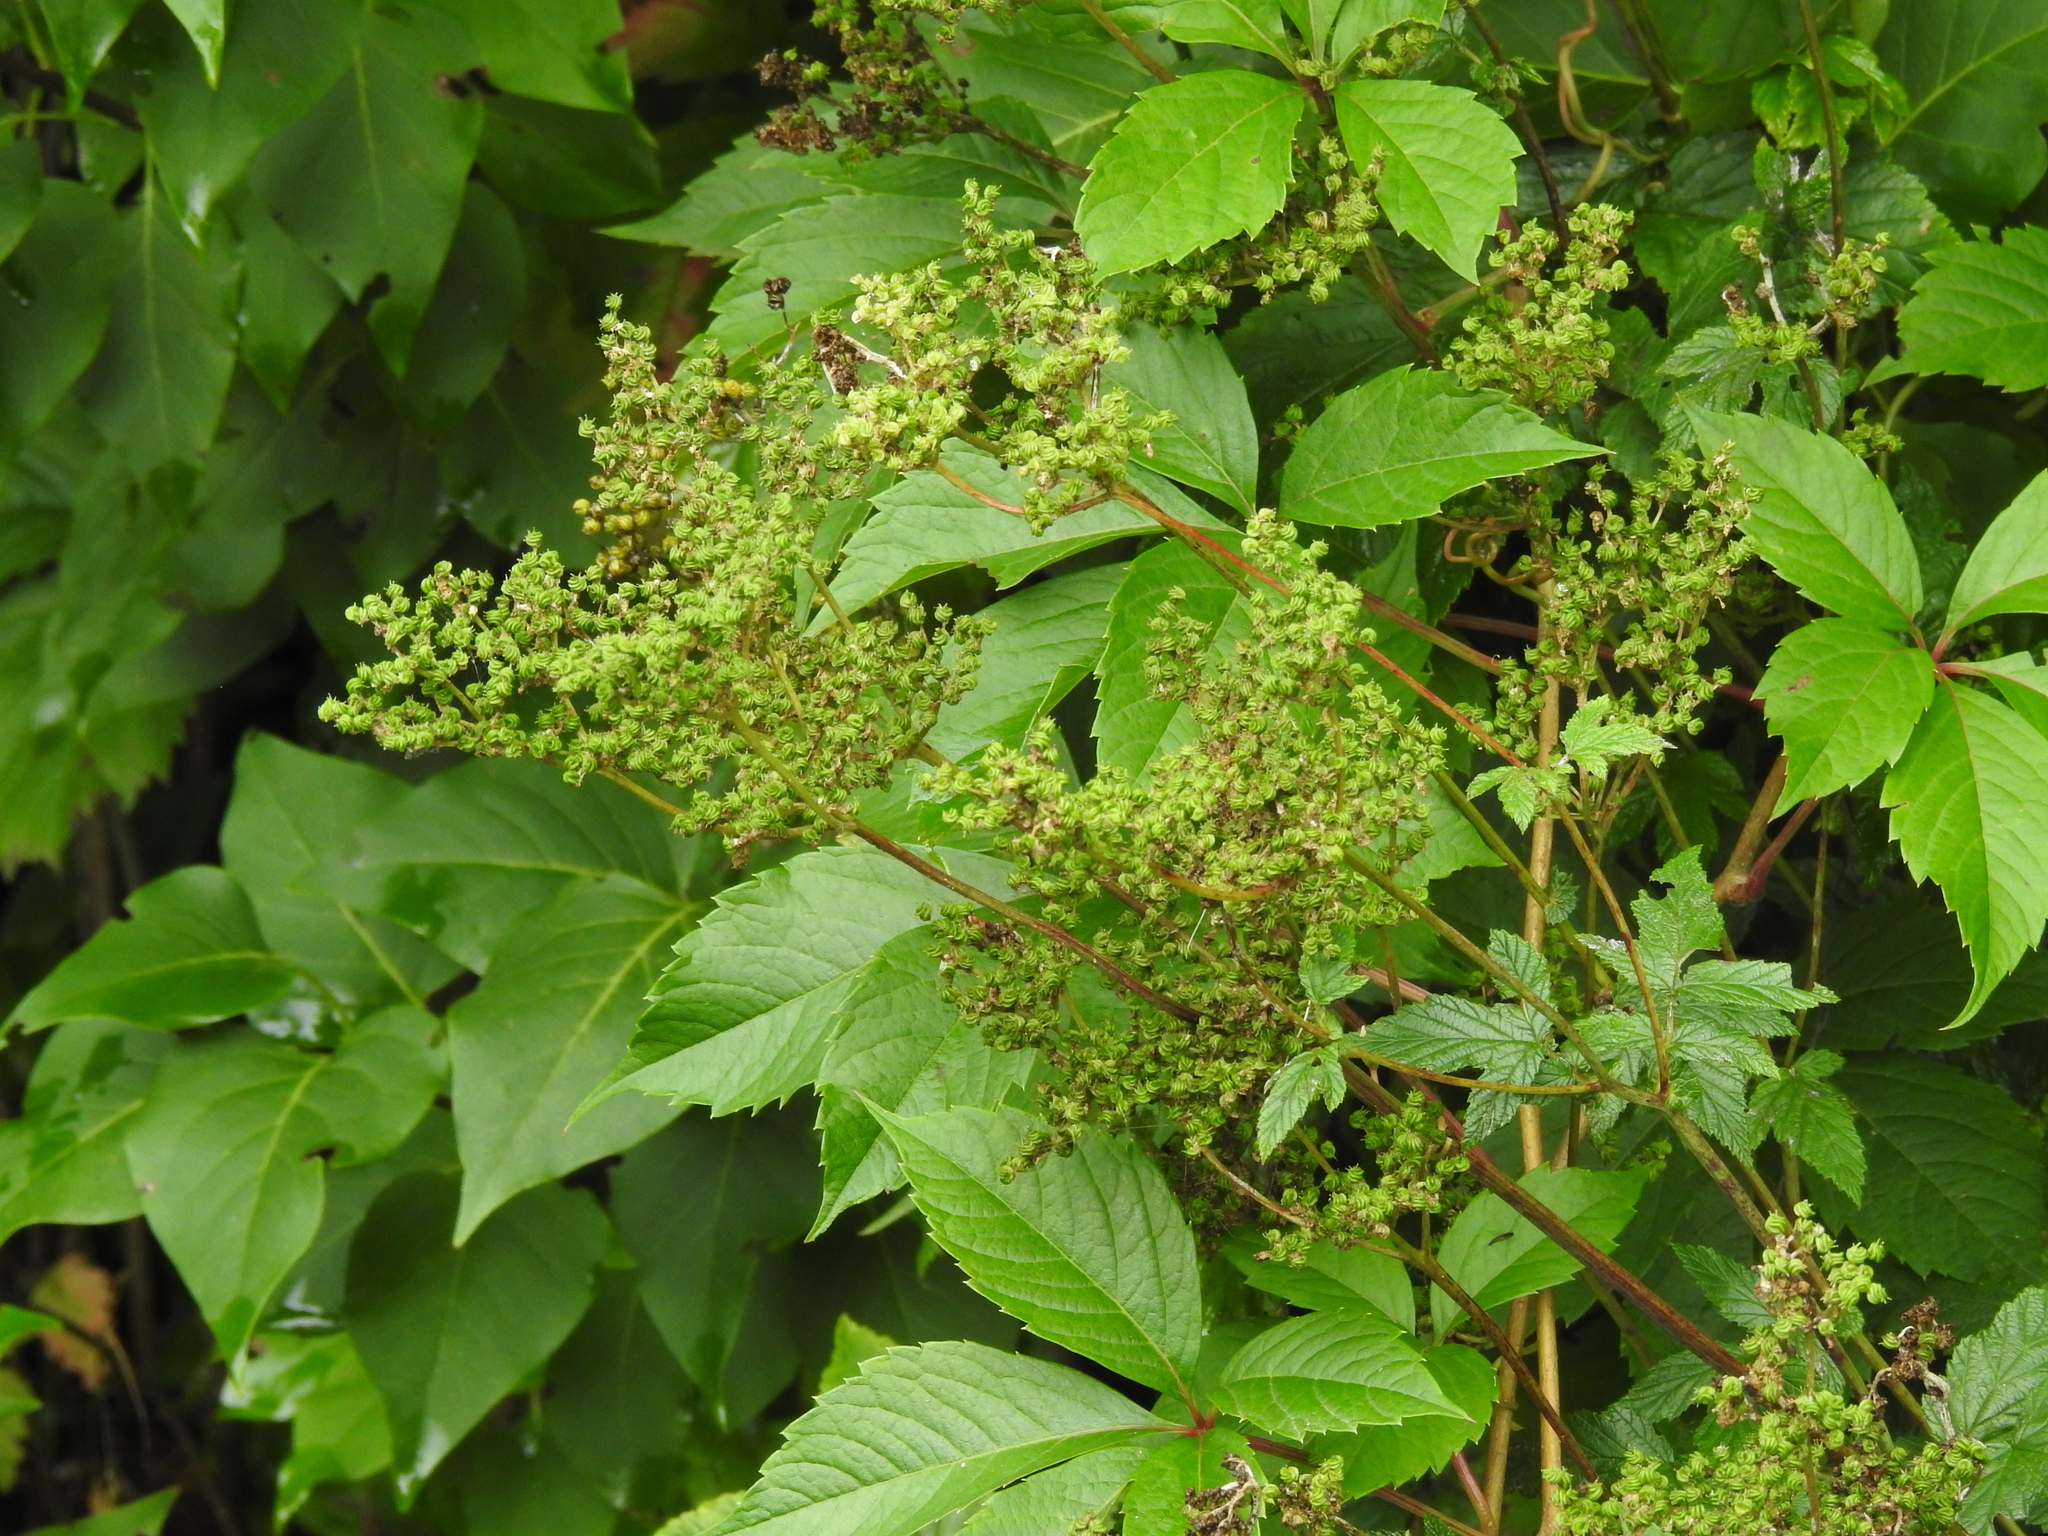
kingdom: Plantae
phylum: Tracheophyta
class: Magnoliopsida
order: Rosales
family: Rosaceae
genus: Filipendula
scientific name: Filipendula ulmaria
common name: Meadowsweet
